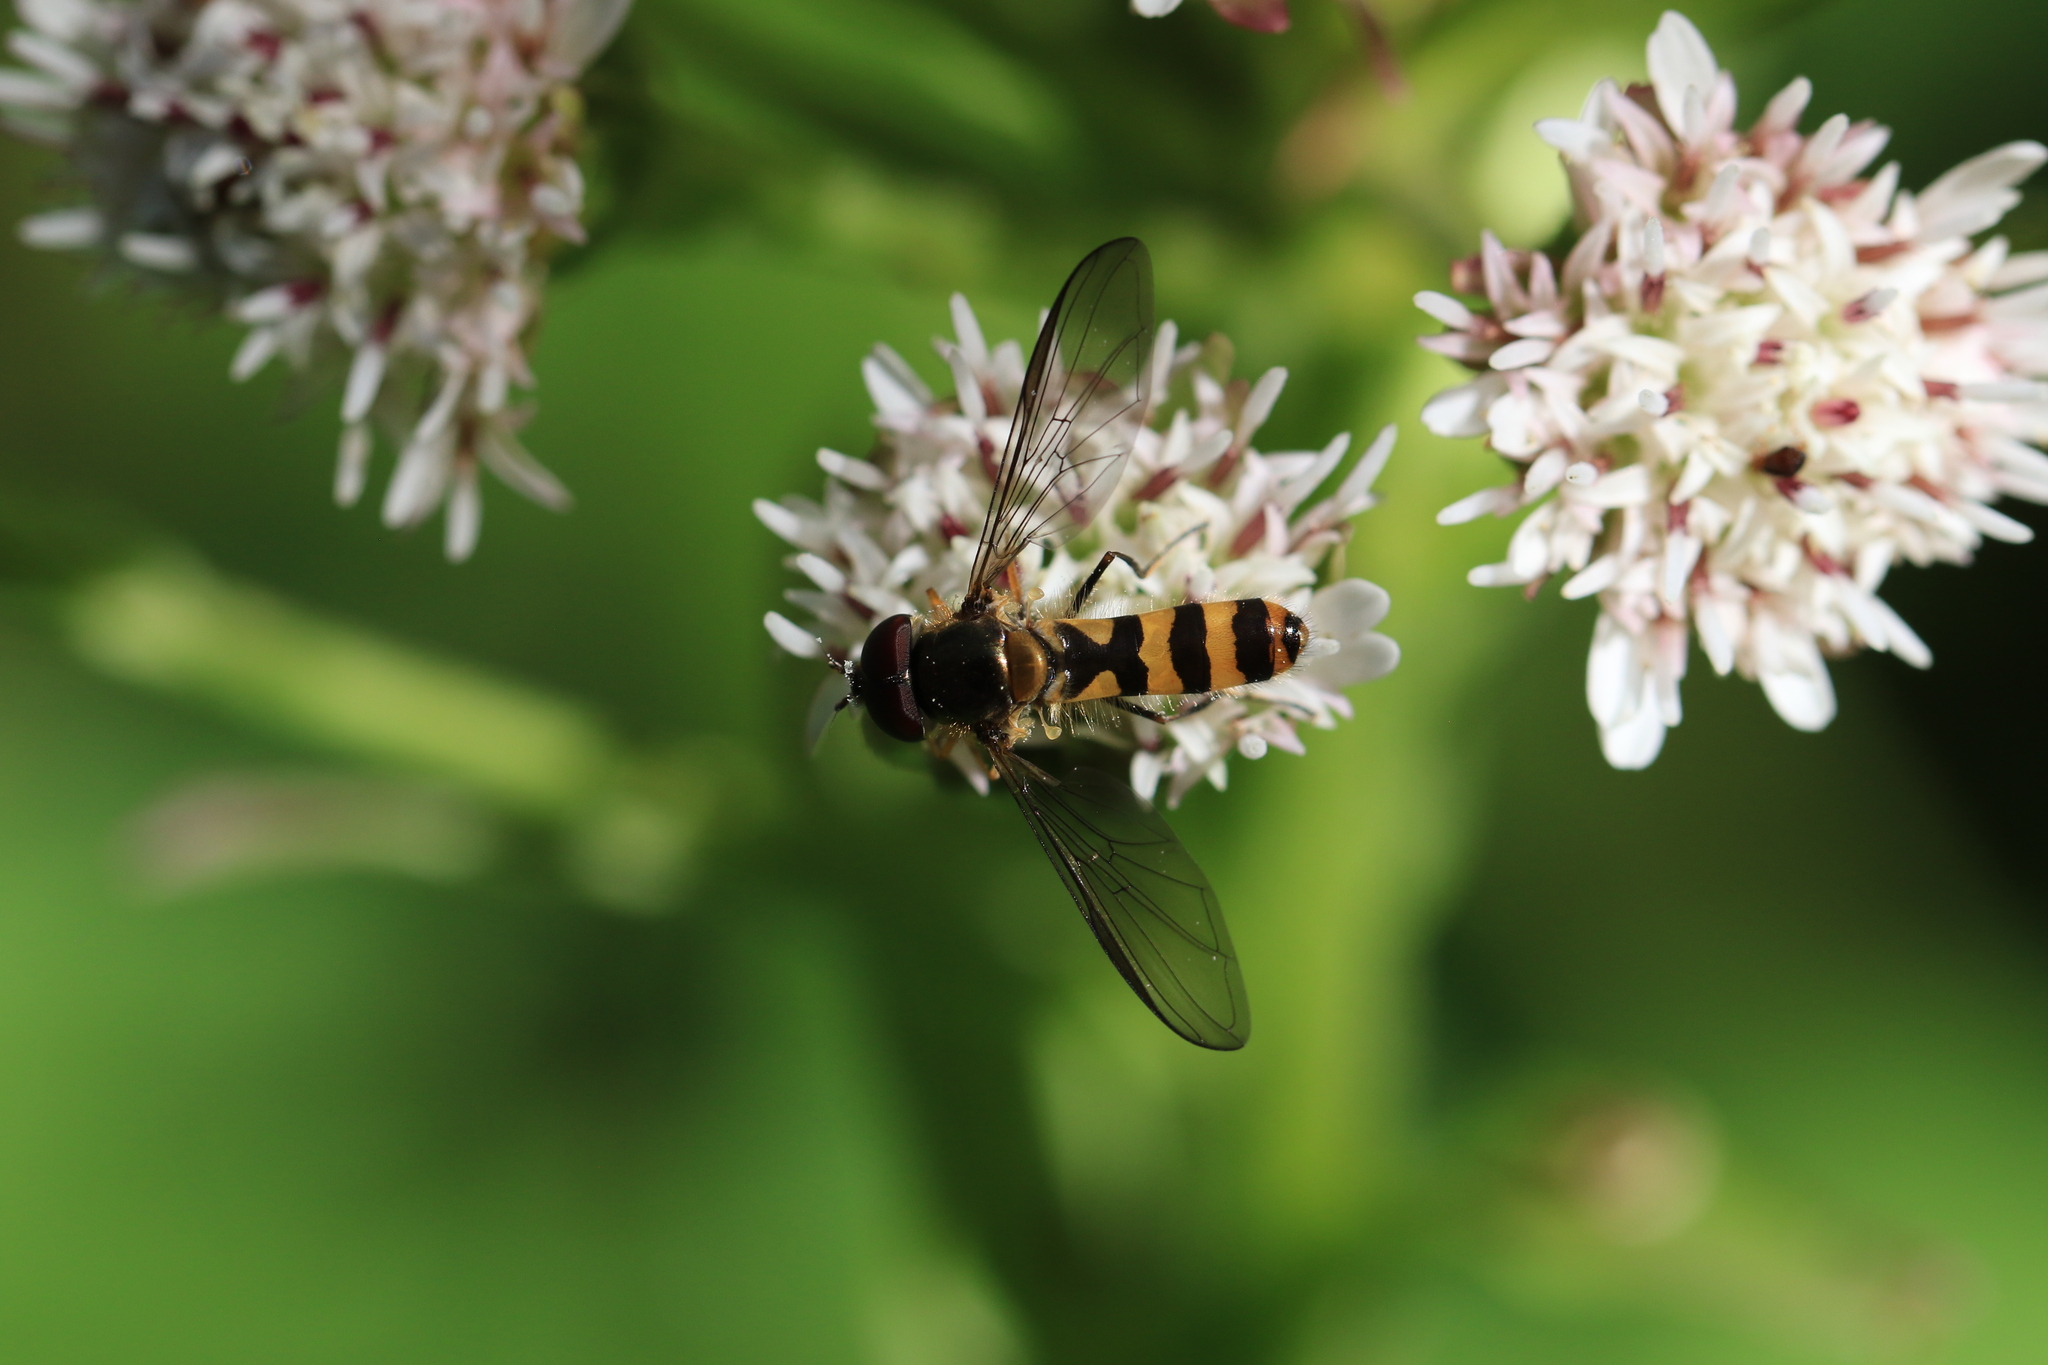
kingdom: Animalia
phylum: Arthropoda
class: Insecta
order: Diptera
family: Syrphidae
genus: Meliscaeva
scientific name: Meliscaeva cinctella
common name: American thintail fly
